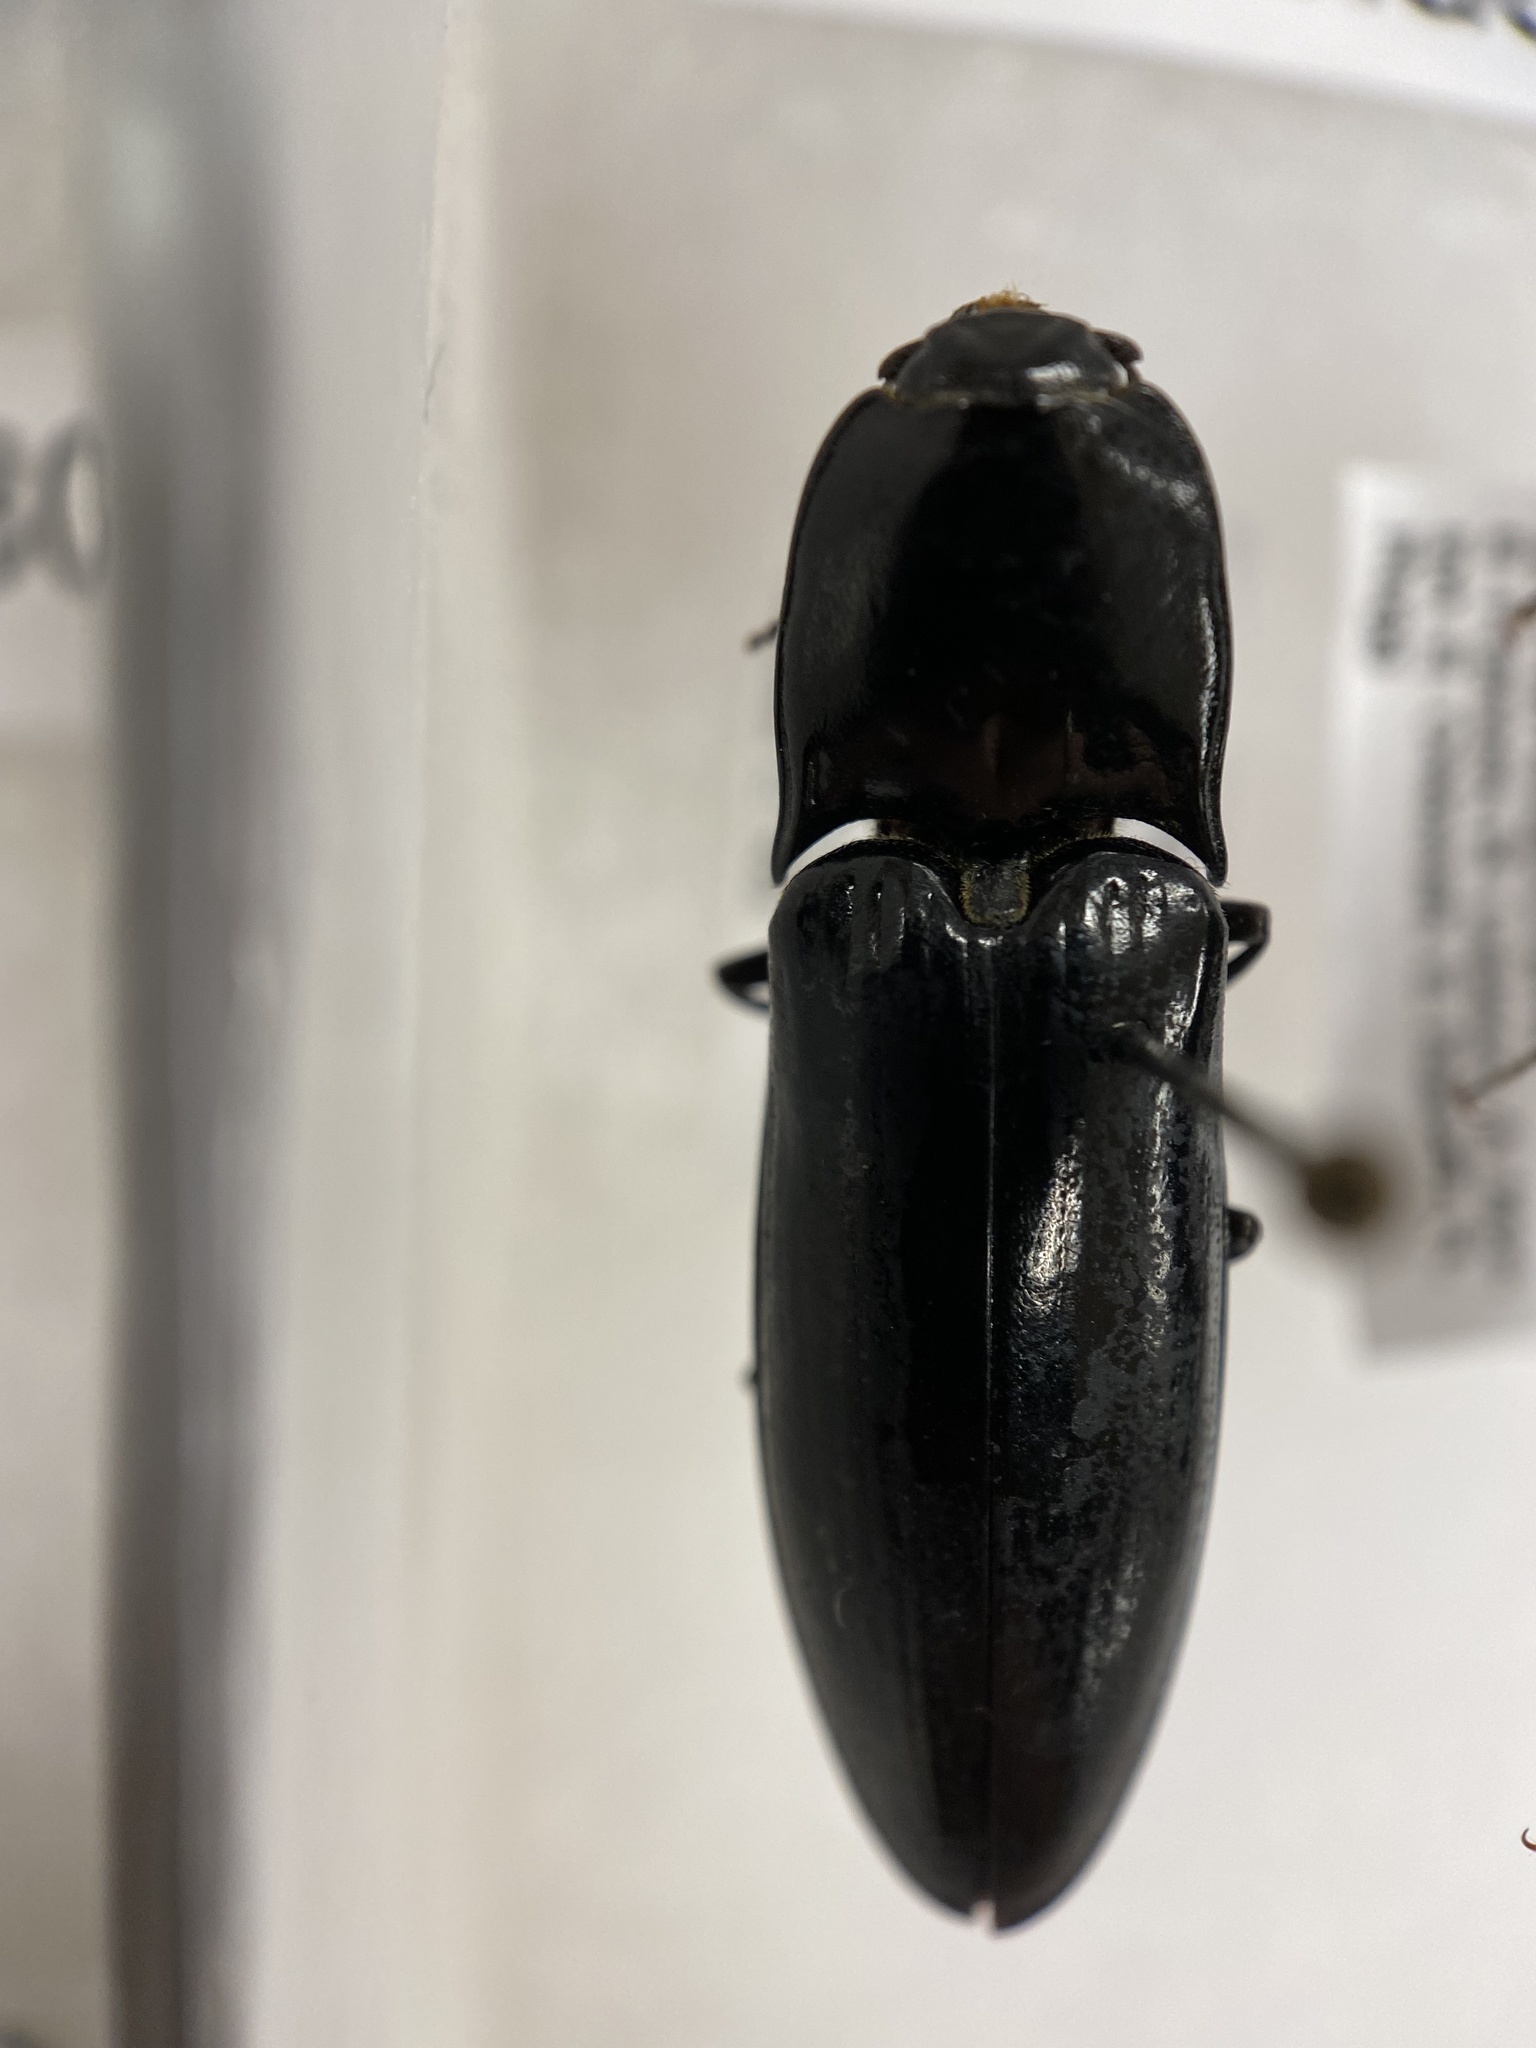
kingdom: Animalia
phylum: Arthropoda
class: Insecta
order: Coleoptera
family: Elateridae
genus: Melanactes
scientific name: Melanactes piceus
